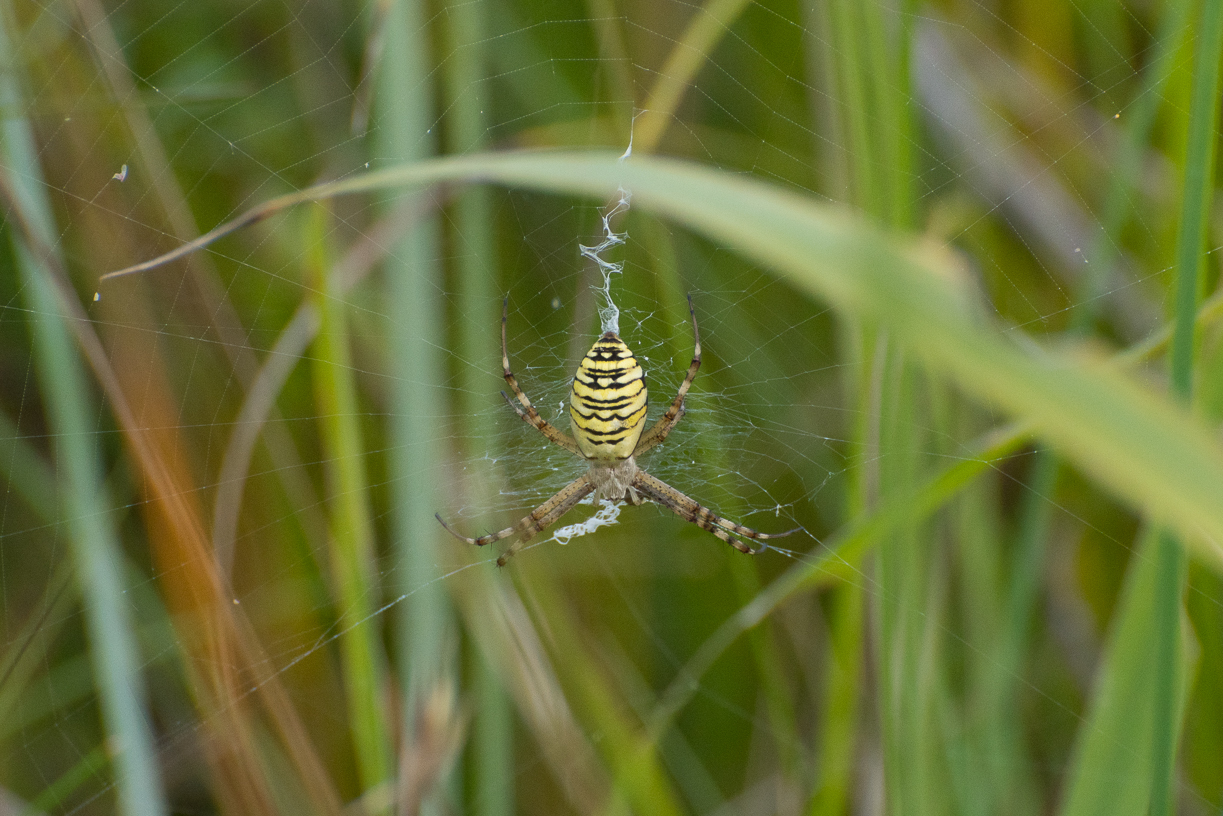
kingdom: Animalia
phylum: Arthropoda
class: Arachnida
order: Araneae
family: Araneidae
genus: Argiope
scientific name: Argiope bruennichi
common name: Wasp spider
